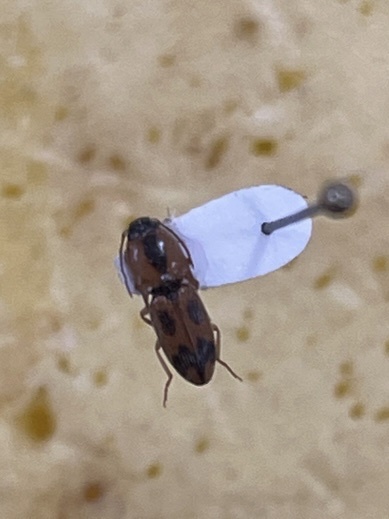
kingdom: Animalia
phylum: Arthropoda
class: Insecta
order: Coleoptera
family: Elateridae
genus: Aeolus
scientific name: Aeolus mellillus
